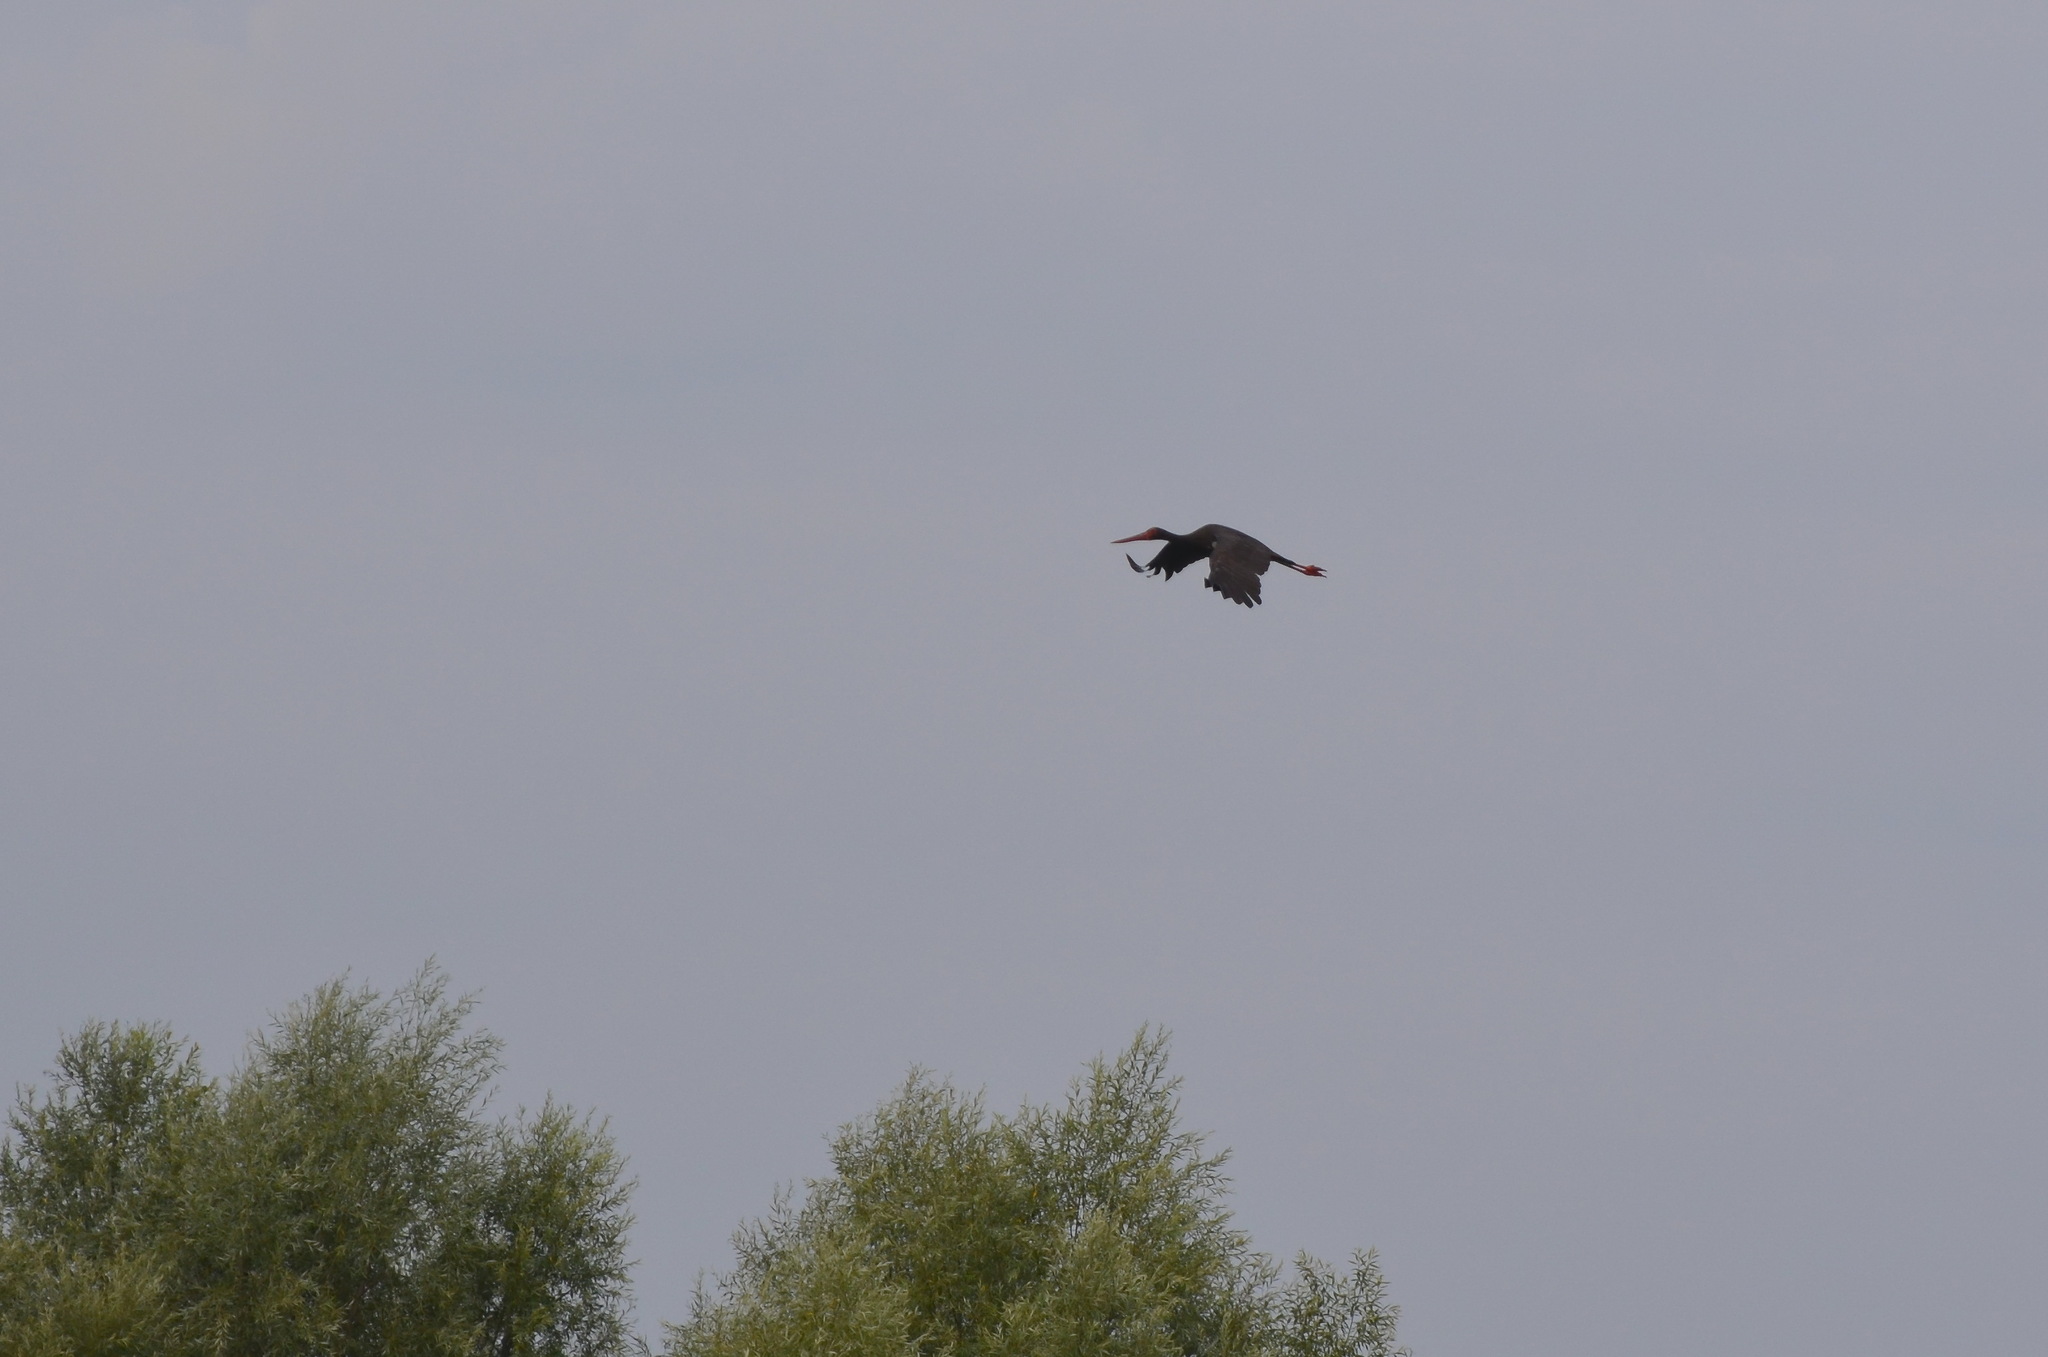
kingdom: Animalia
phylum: Chordata
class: Aves
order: Ciconiiformes
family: Ciconiidae
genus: Ciconia
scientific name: Ciconia nigra
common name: Black stork
